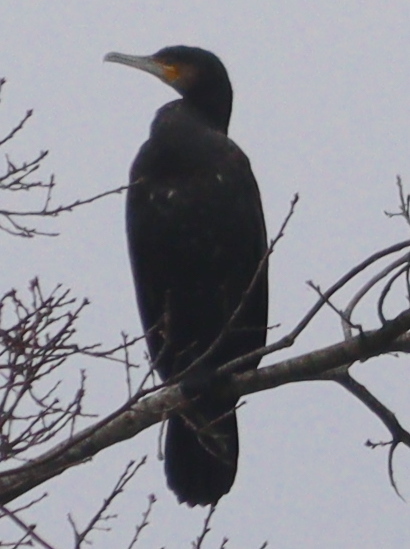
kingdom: Animalia
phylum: Chordata
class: Aves
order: Suliformes
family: Phalacrocoracidae
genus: Phalacrocorax
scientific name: Phalacrocorax carbo
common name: Great cormorant
